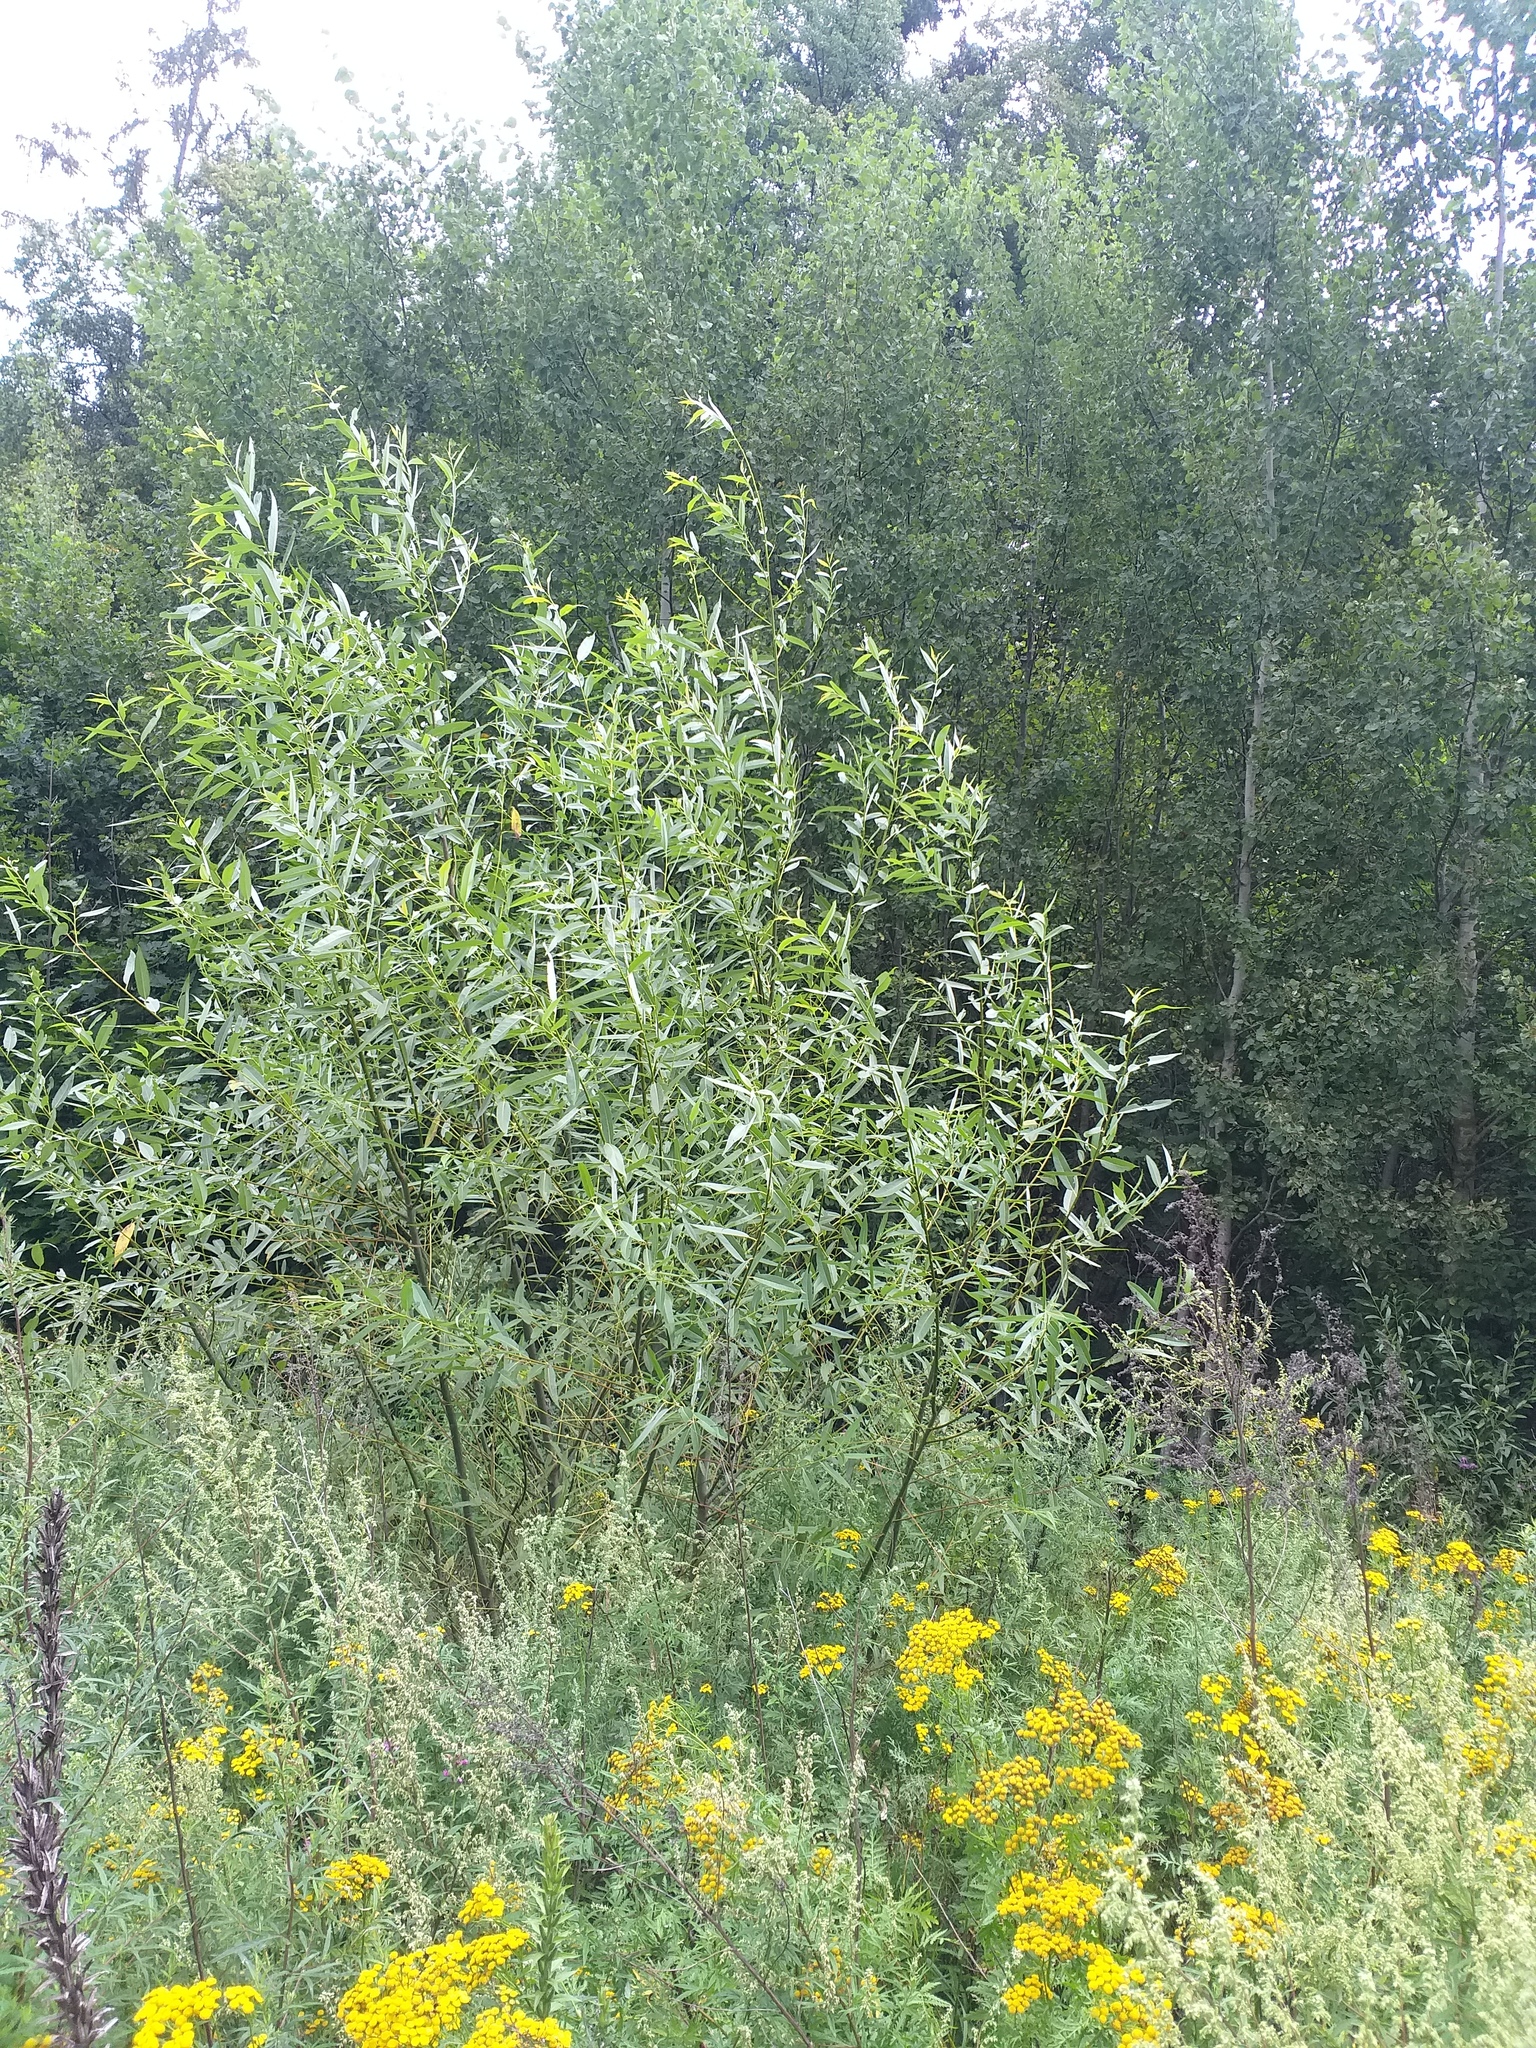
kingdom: Plantae
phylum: Tracheophyta
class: Magnoliopsida
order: Malpighiales
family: Salicaceae
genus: Salix
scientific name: Salix triandra
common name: Almond willow
